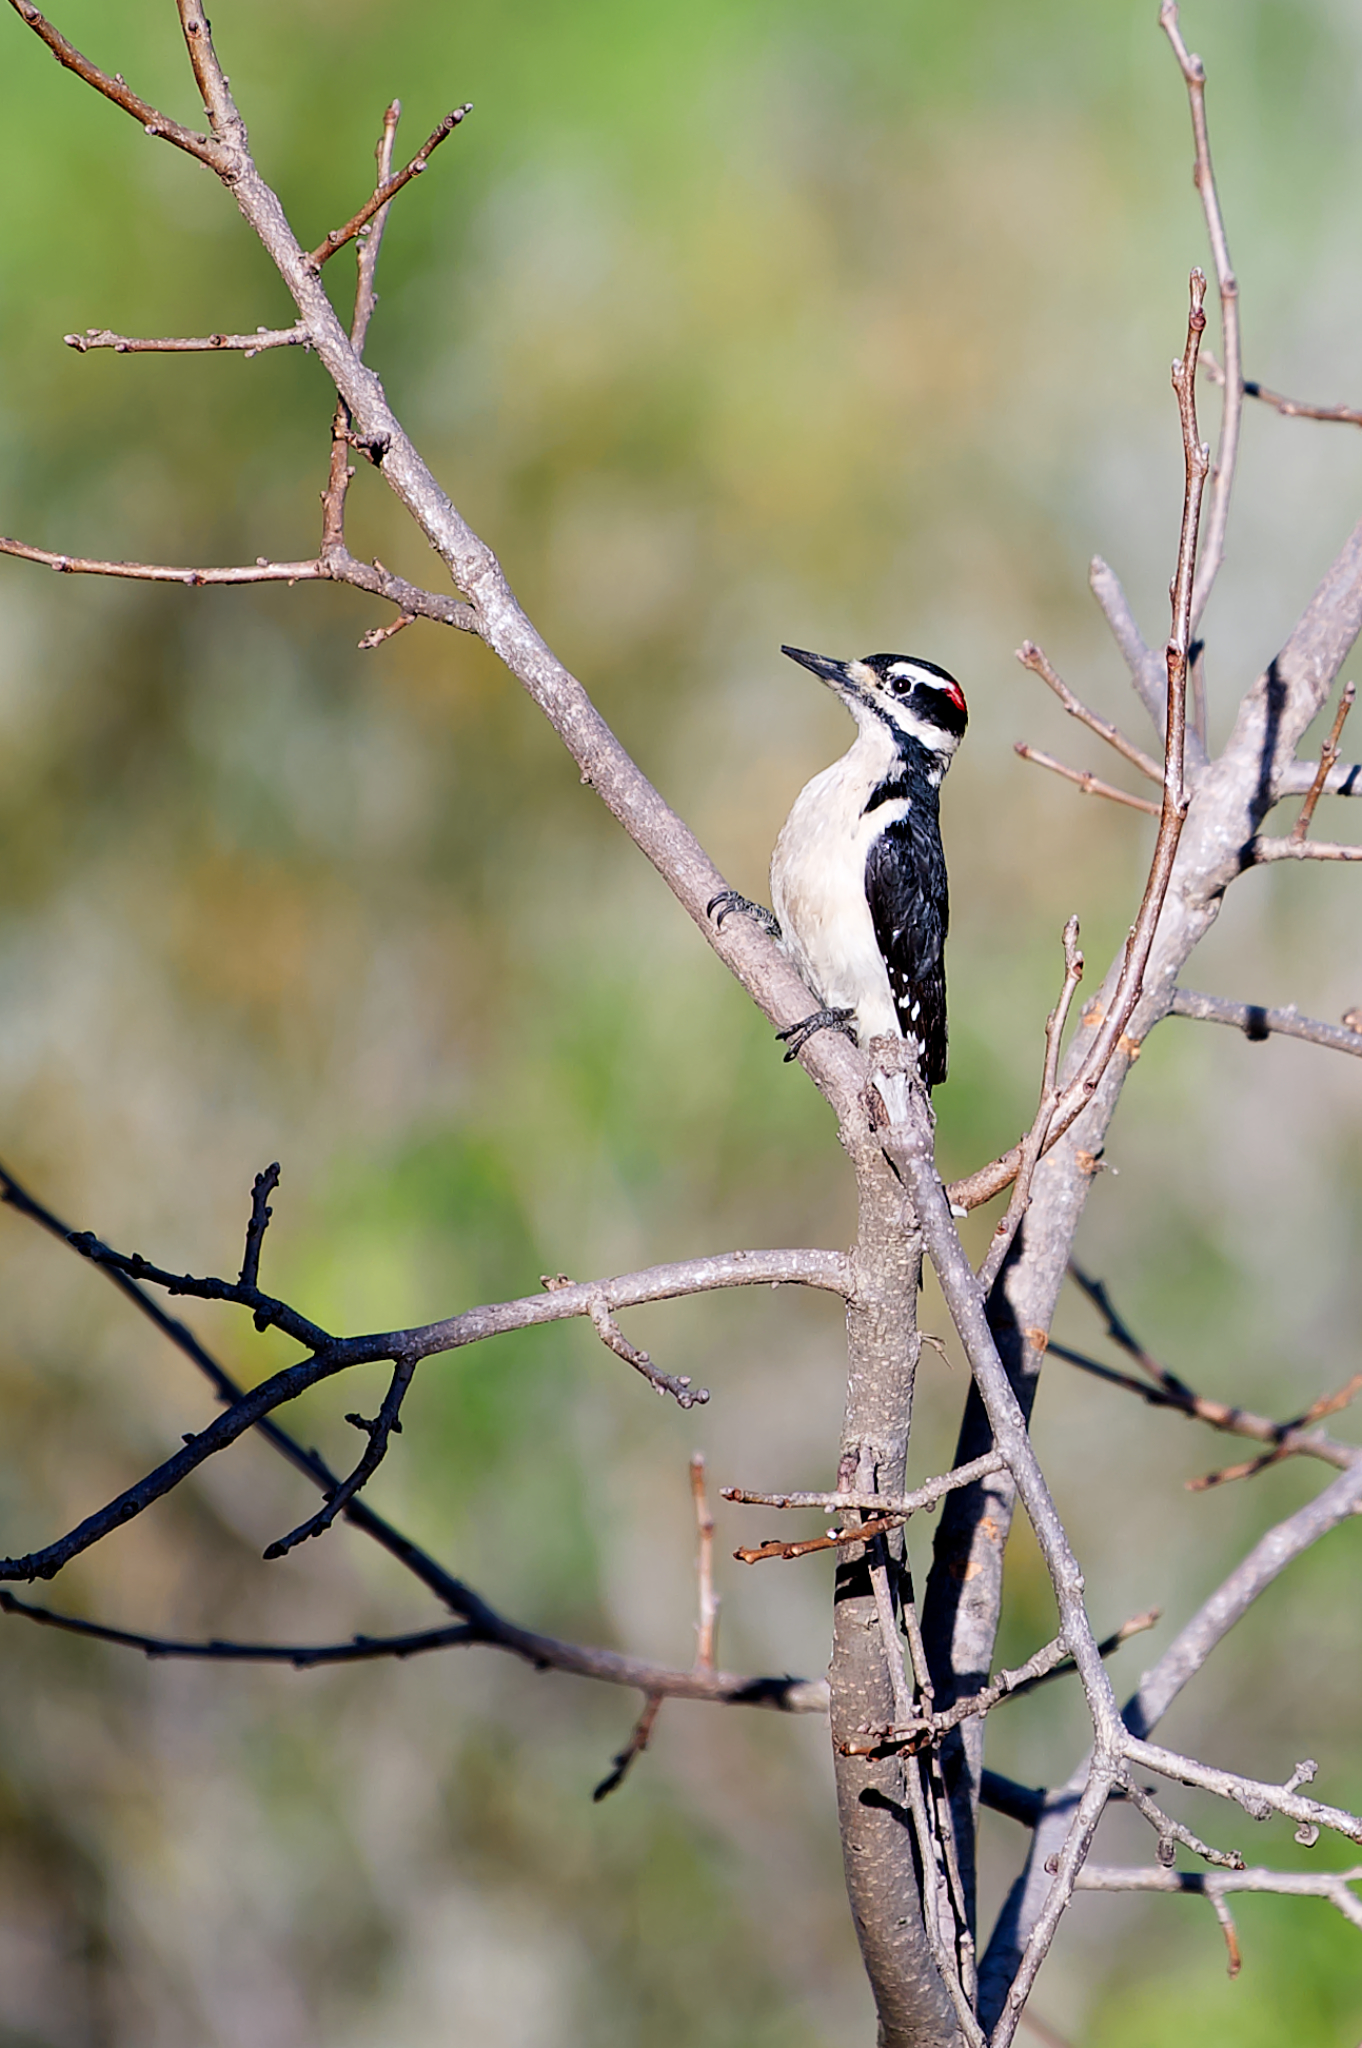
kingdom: Animalia
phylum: Chordata
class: Aves
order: Piciformes
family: Picidae
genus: Leuconotopicus
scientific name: Leuconotopicus villosus
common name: Hairy woodpecker
